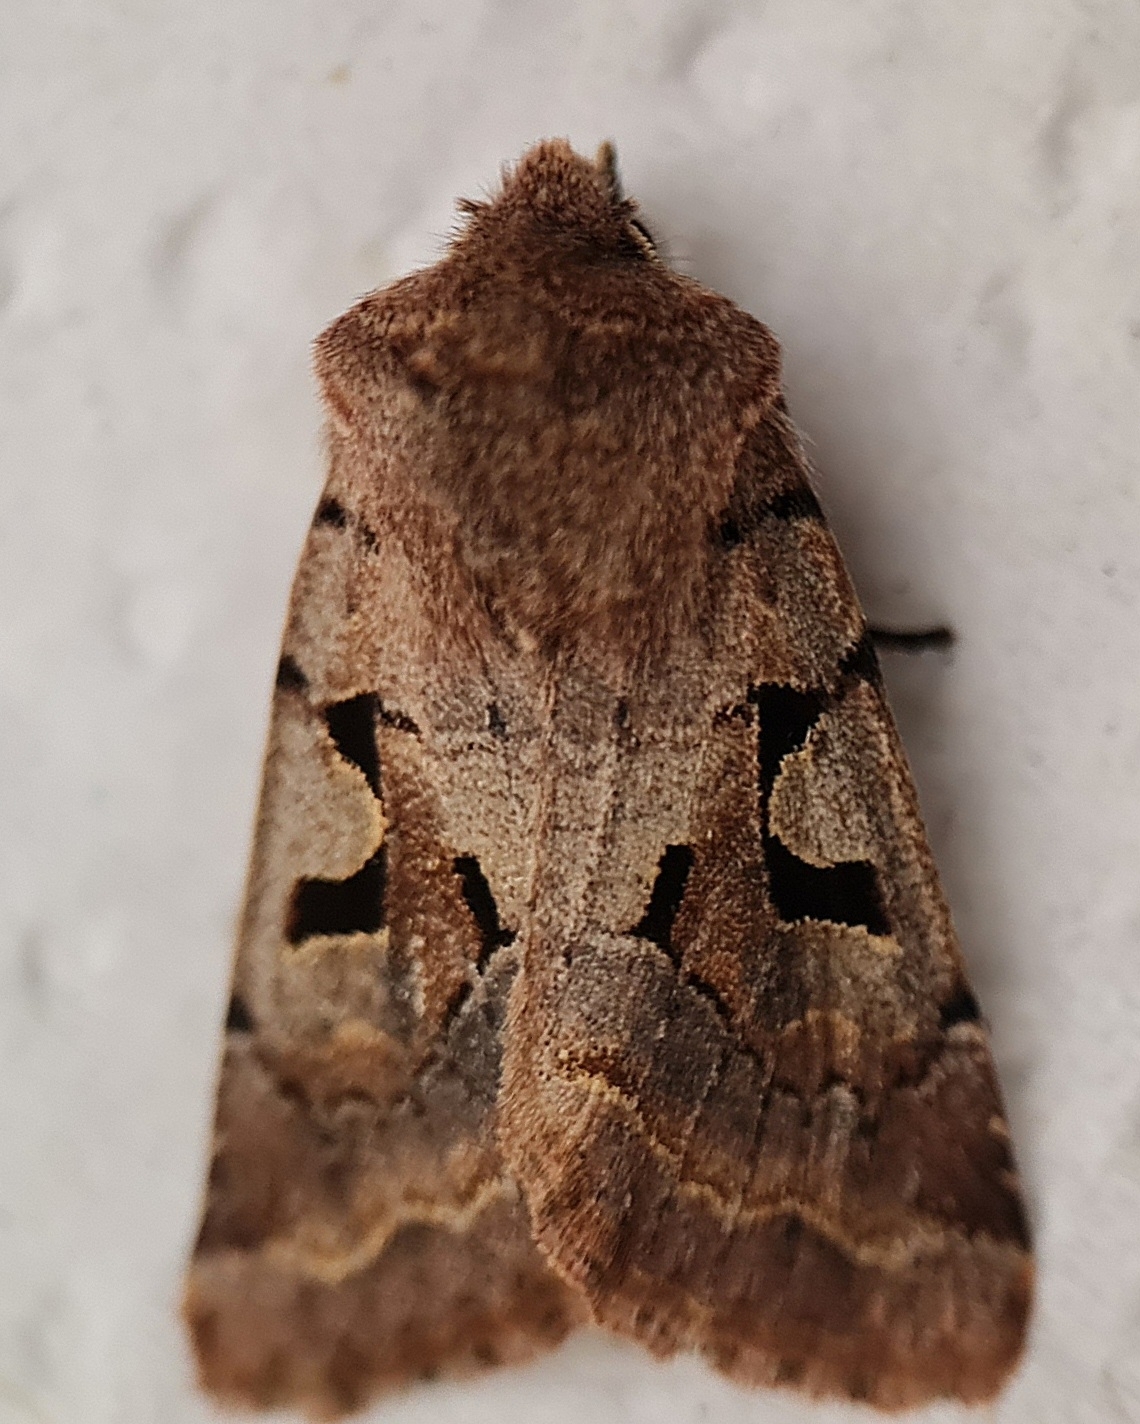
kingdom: Animalia
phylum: Arthropoda
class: Insecta
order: Lepidoptera
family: Noctuidae
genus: Orthosia
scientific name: Orthosia gothica
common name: Hebrew character
